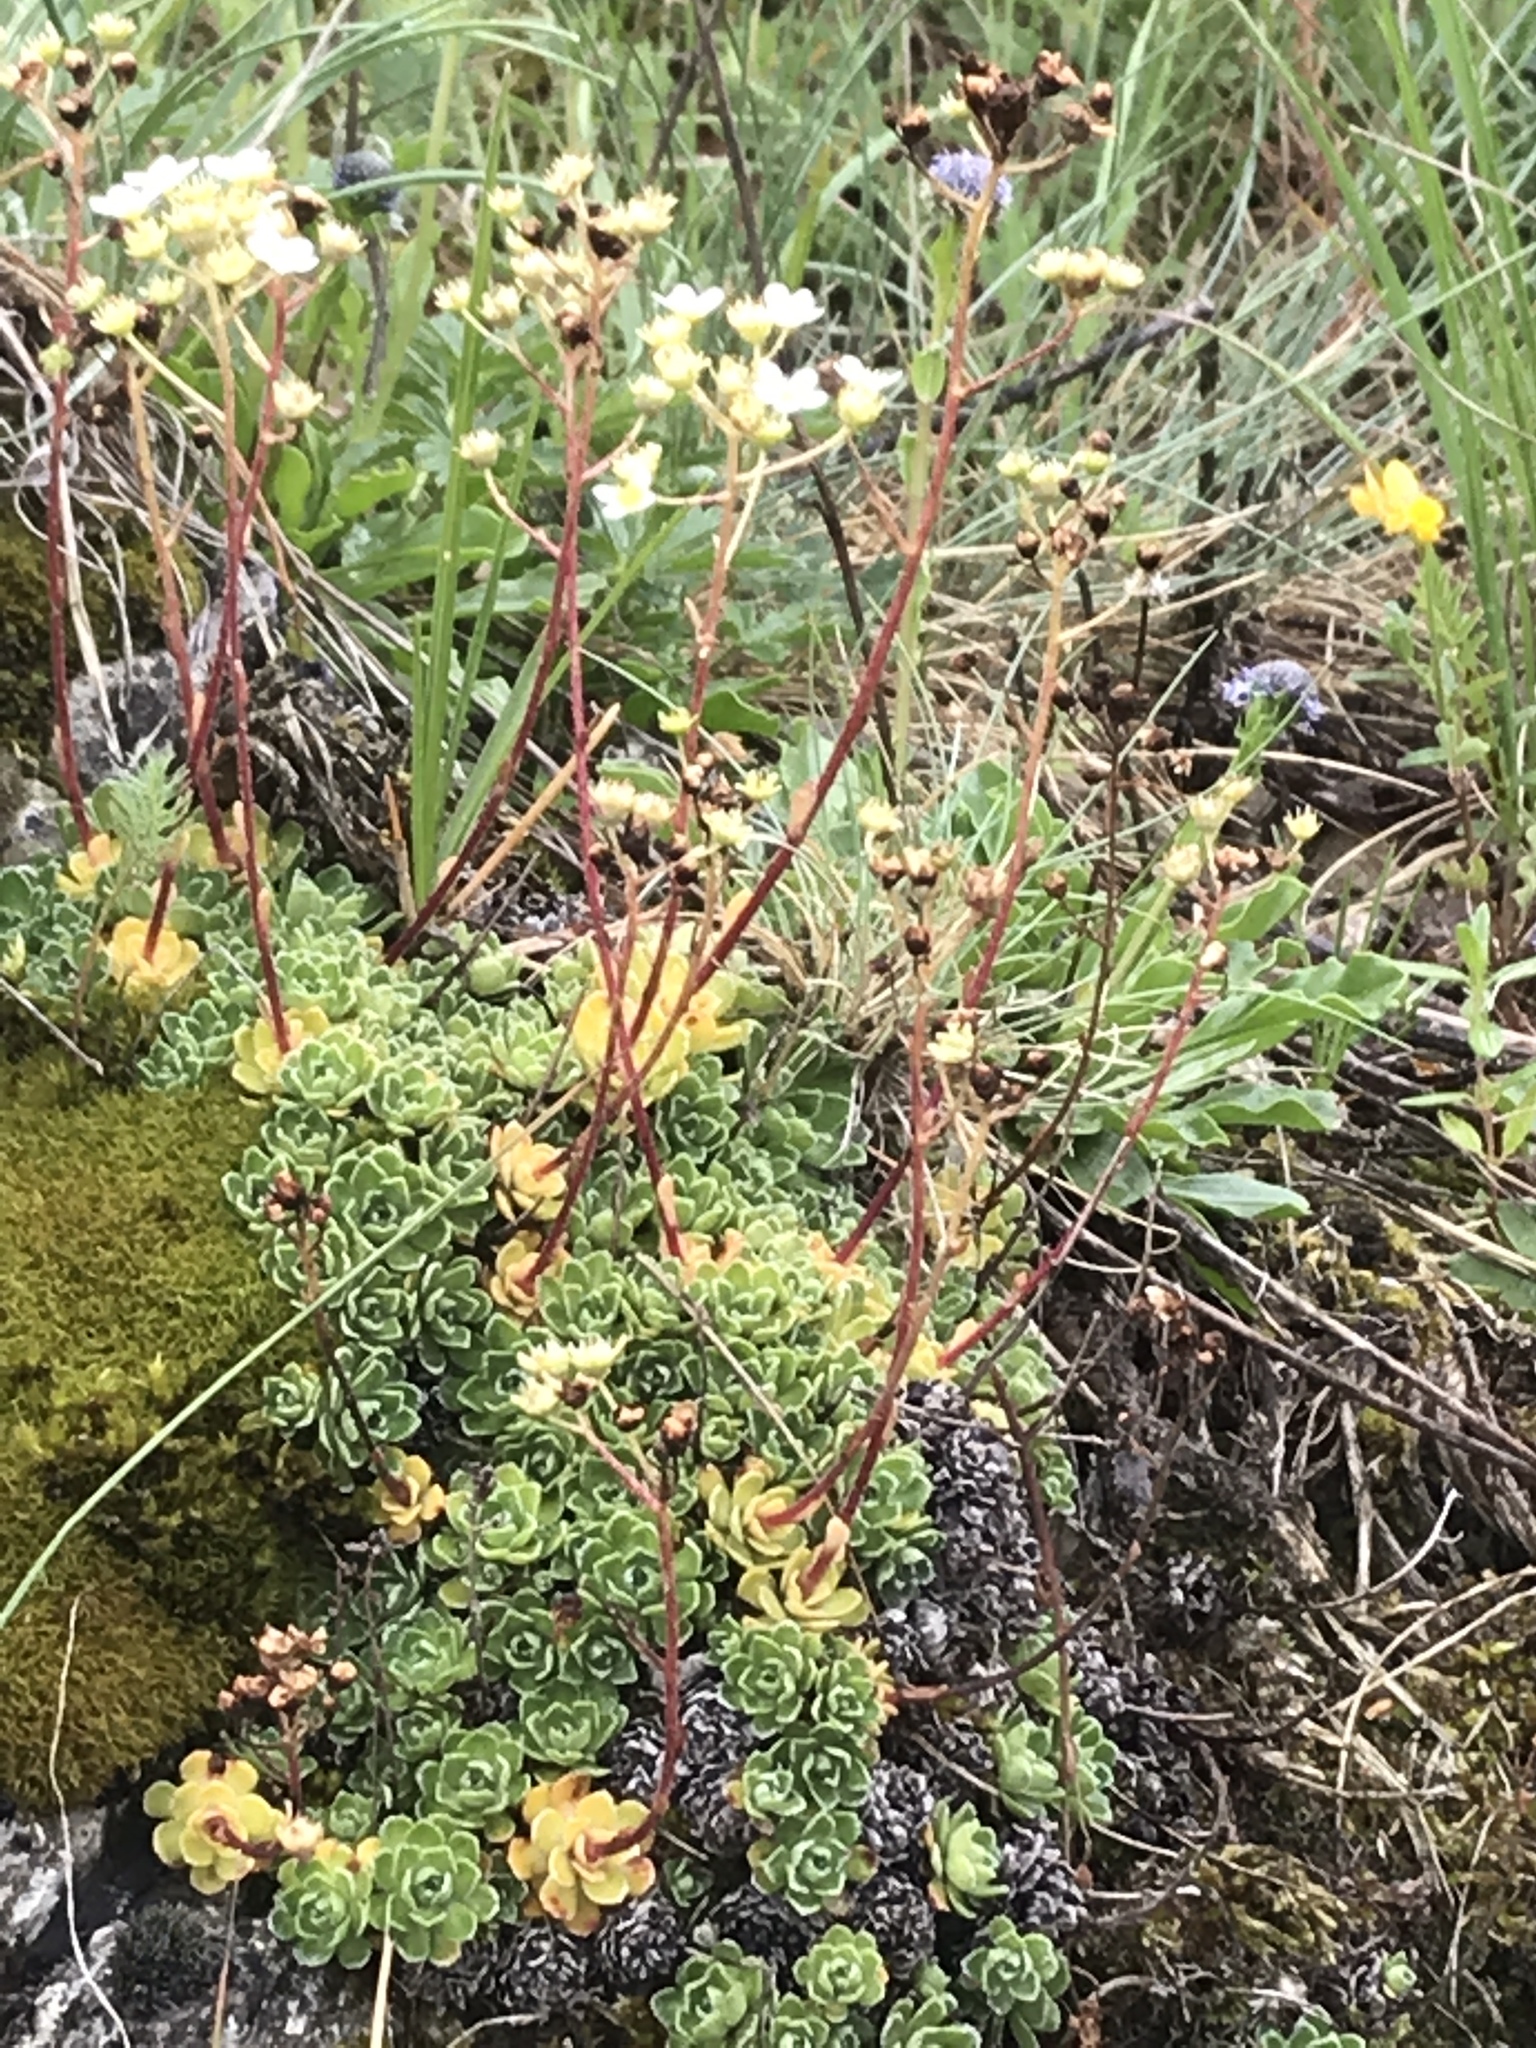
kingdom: Plantae
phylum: Tracheophyta
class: Magnoliopsida
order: Saxifragales
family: Saxifragaceae
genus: Saxifraga
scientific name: Saxifraga paniculata
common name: Livelong saxifrage
